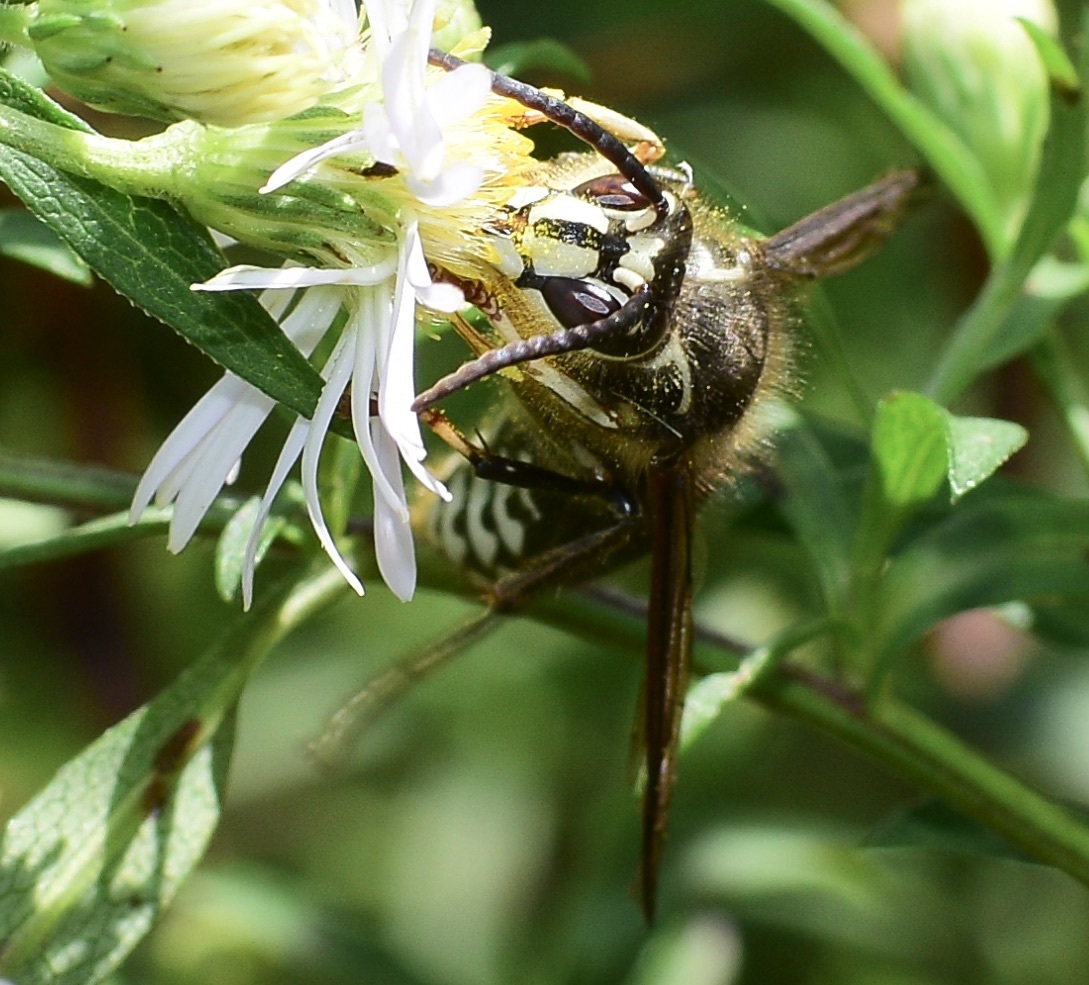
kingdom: Animalia
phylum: Arthropoda
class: Insecta
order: Hymenoptera
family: Vespidae
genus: Dolichovespula
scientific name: Dolichovespula maculata
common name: Bald-faced hornet
